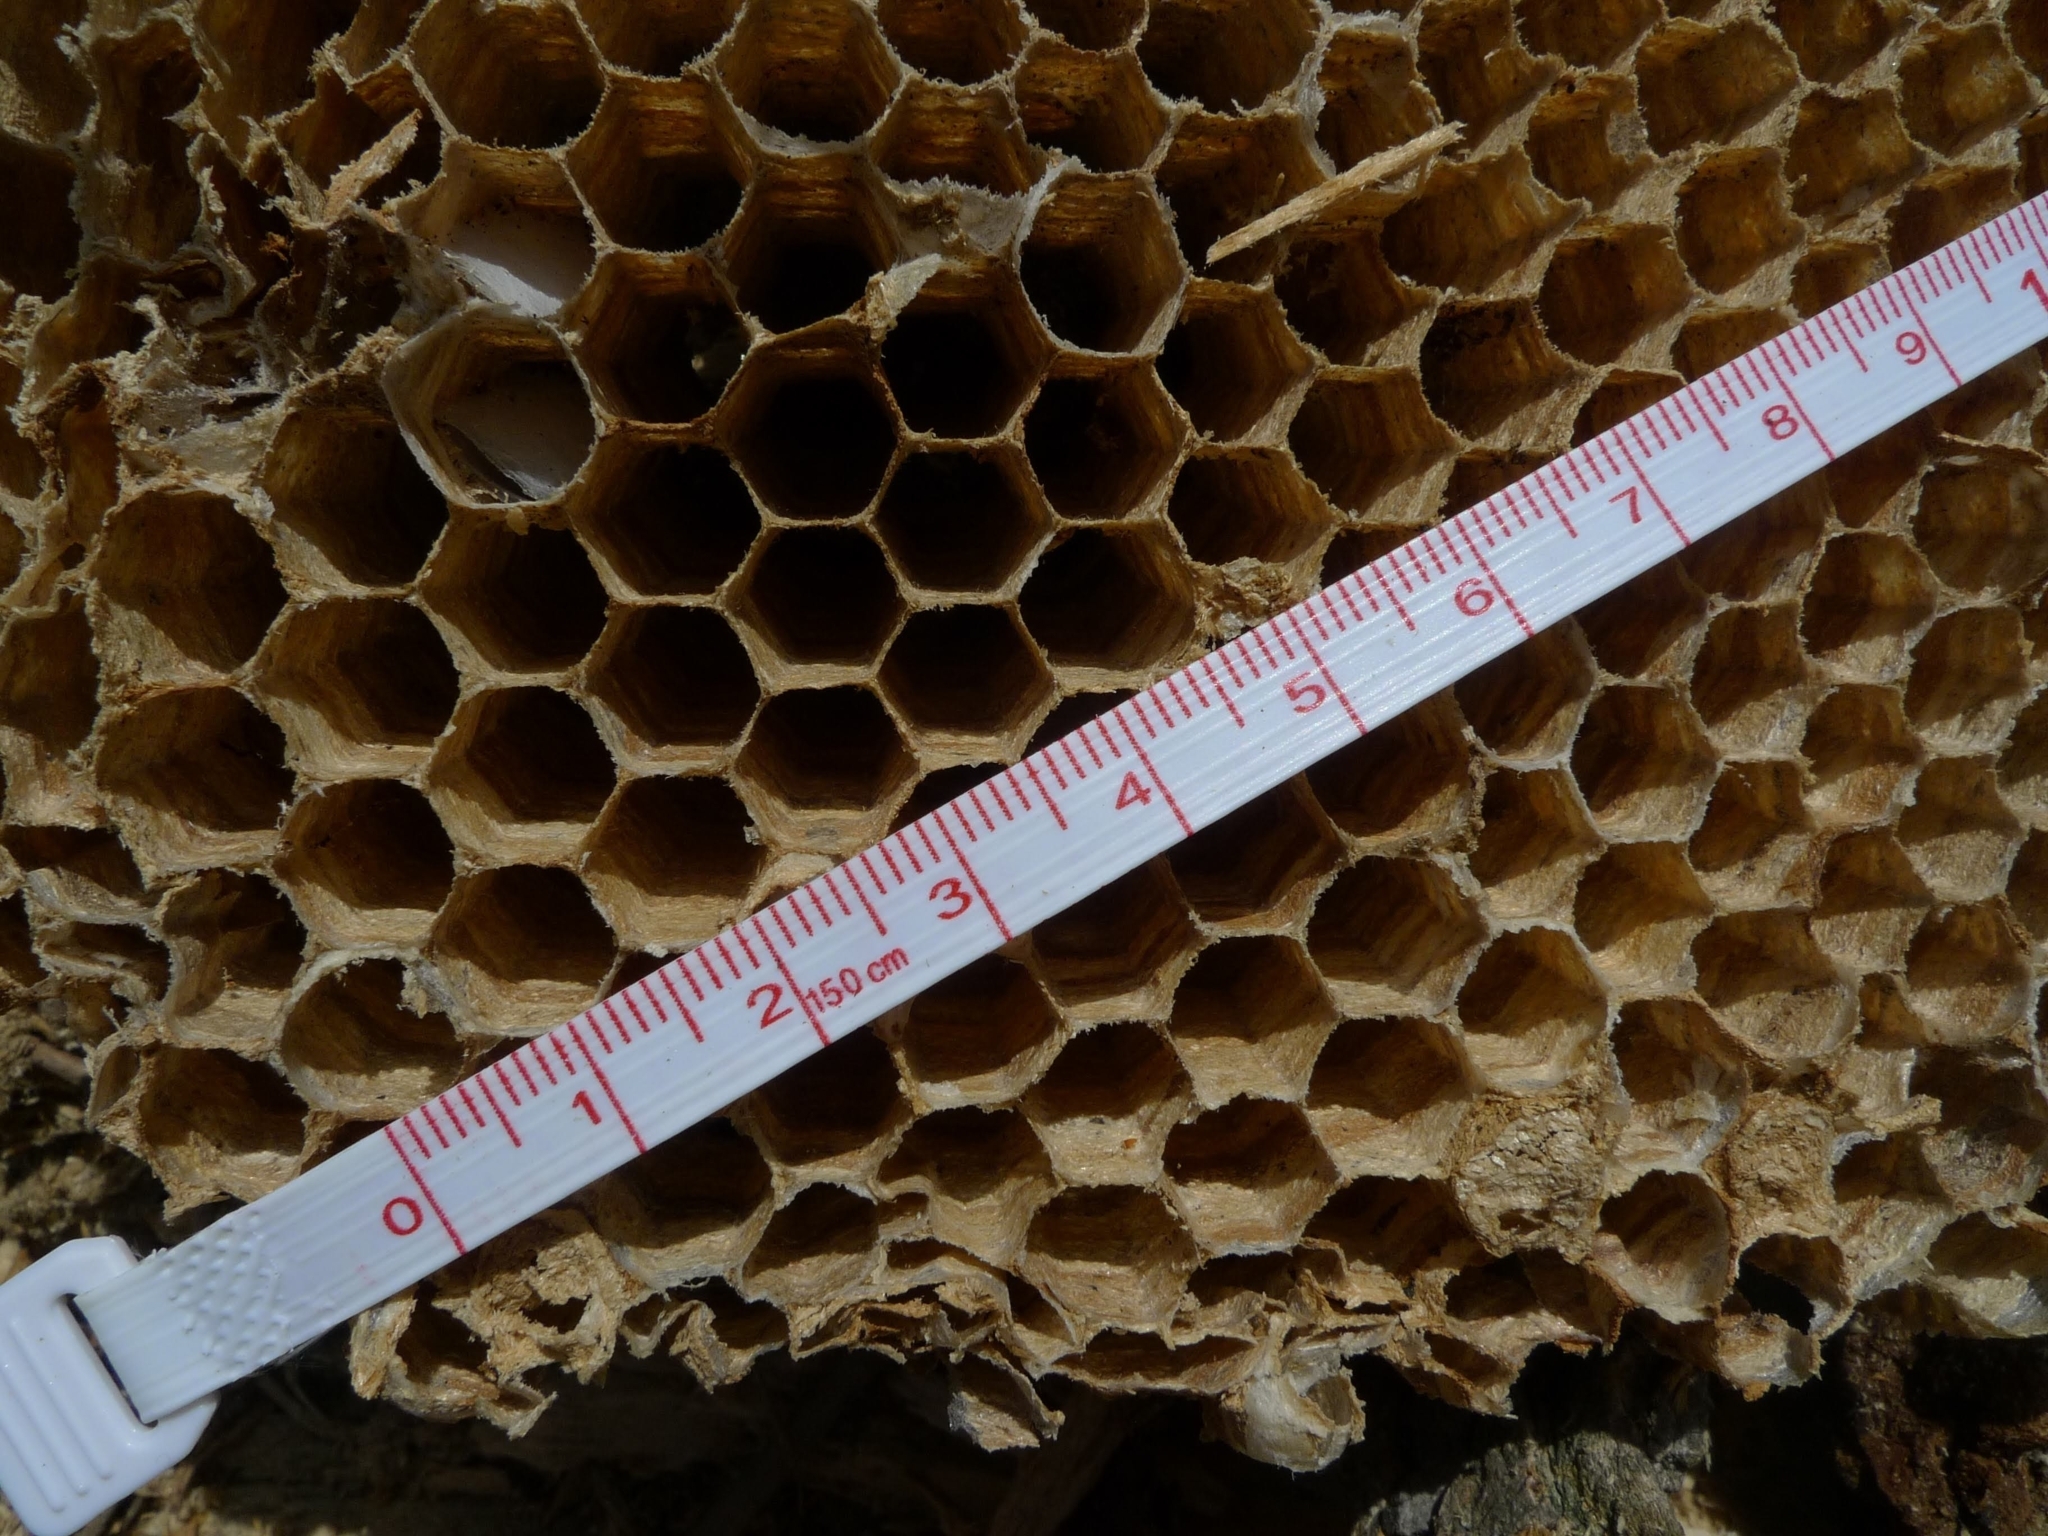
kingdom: Animalia
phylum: Arthropoda
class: Insecta
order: Hymenoptera
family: Vespidae
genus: Vespa
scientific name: Vespa crabro
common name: Hornet
